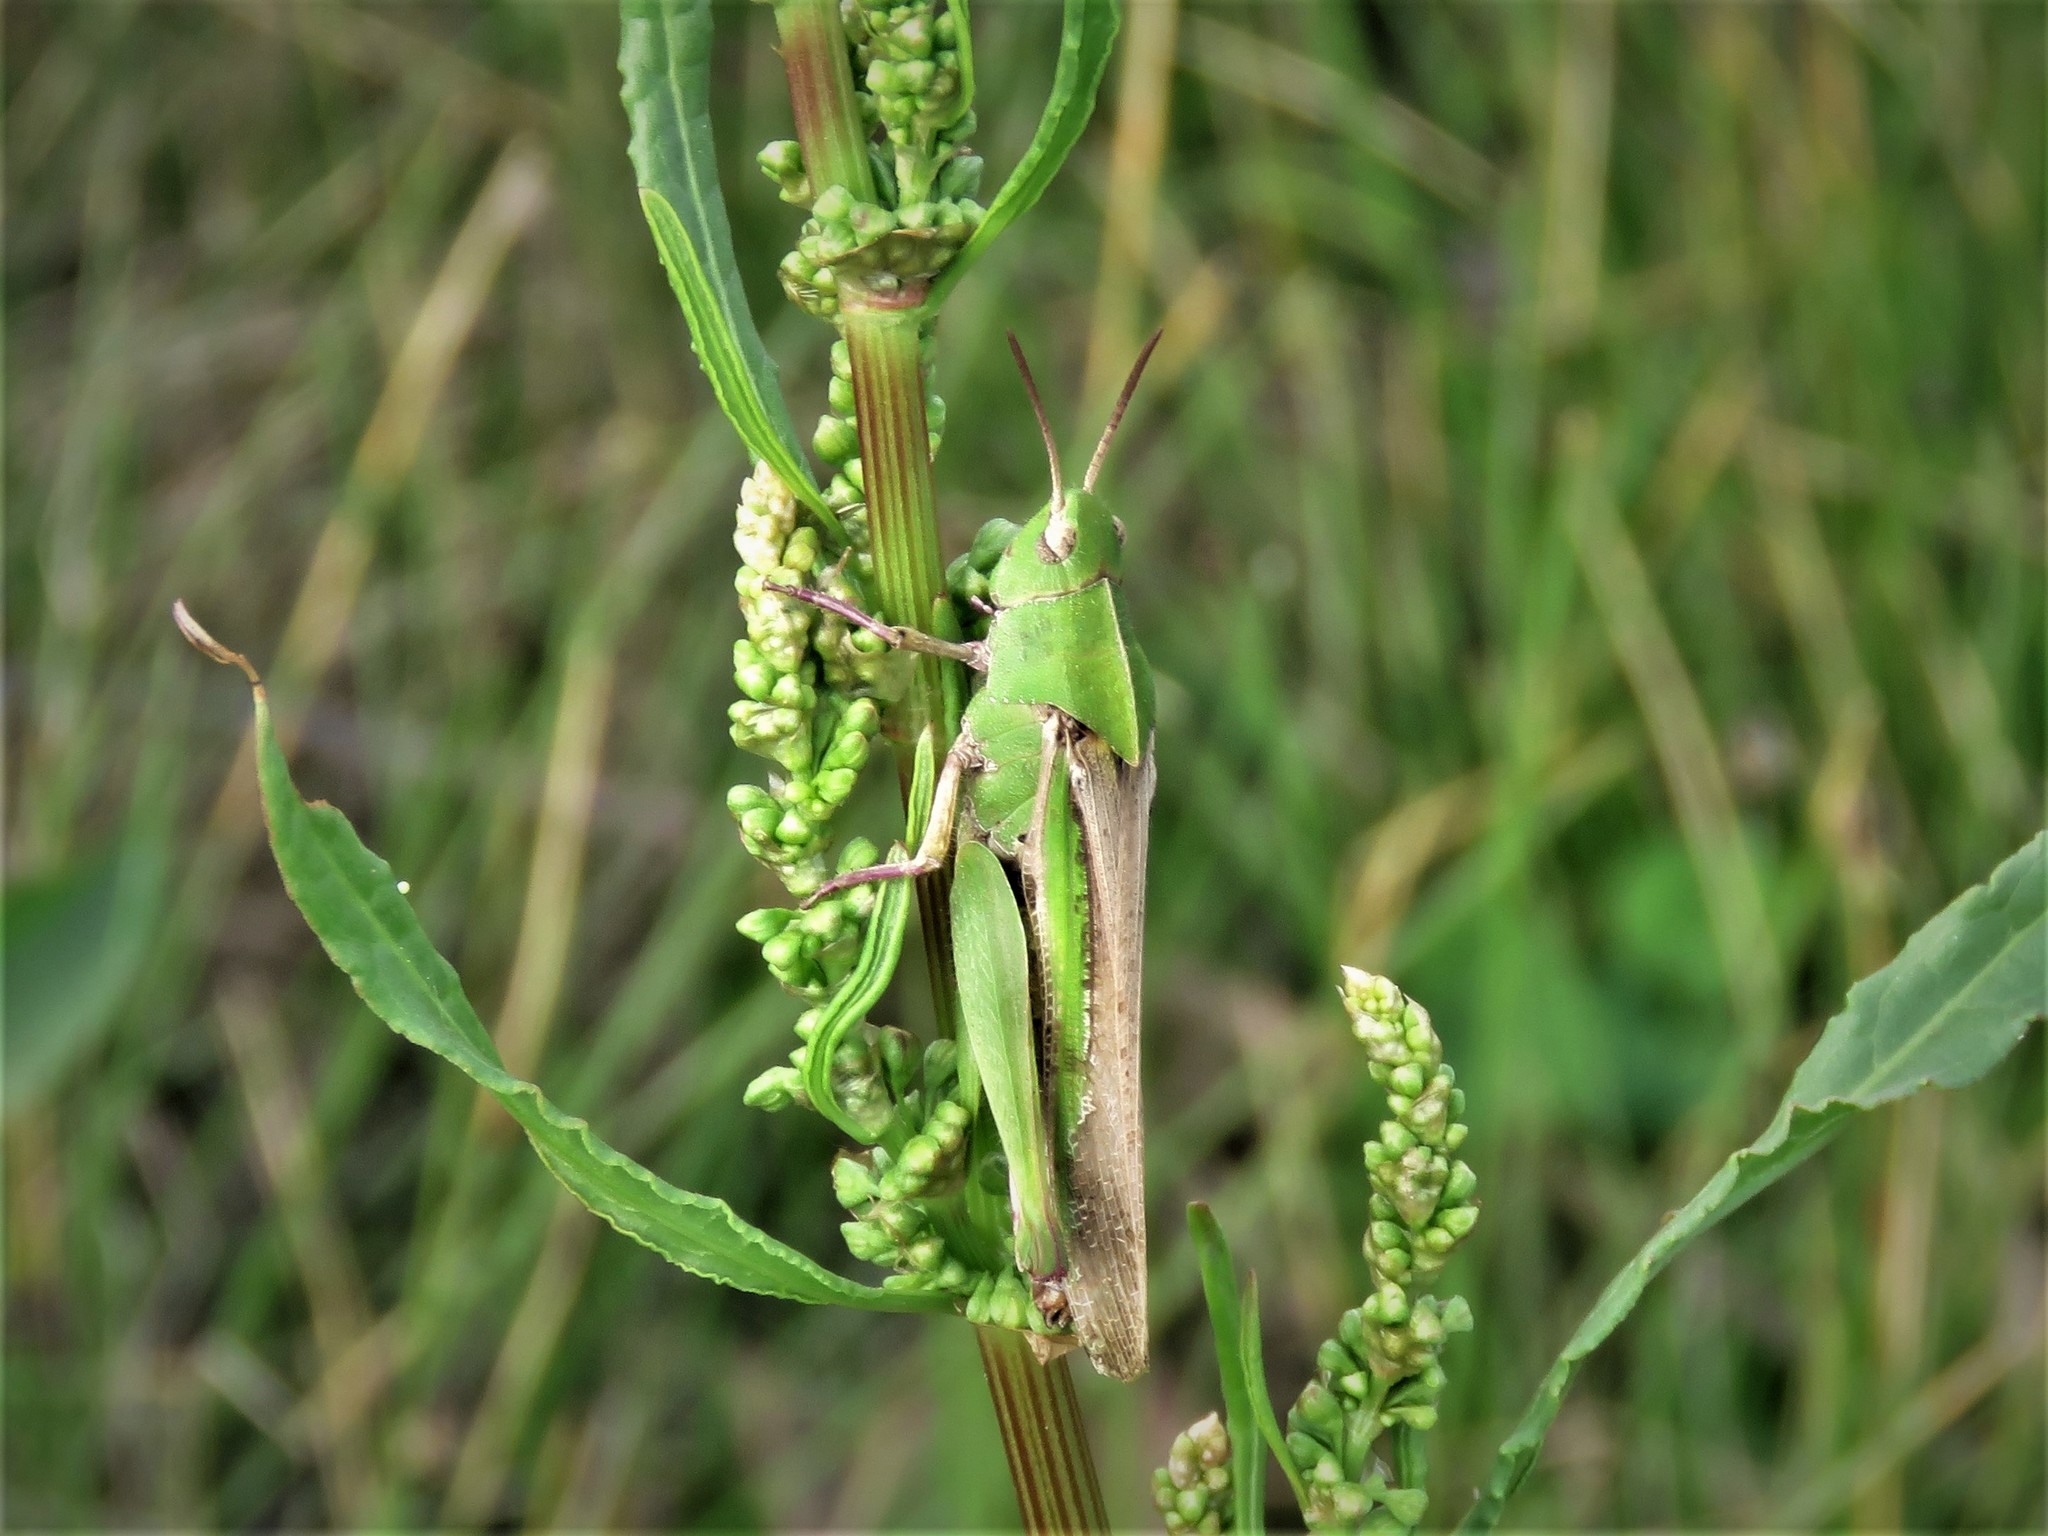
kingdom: Animalia
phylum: Arthropoda
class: Insecta
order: Orthoptera
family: Acrididae
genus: Chortophaga
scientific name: Chortophaga viridifasciata
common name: Green-striped grasshopper
